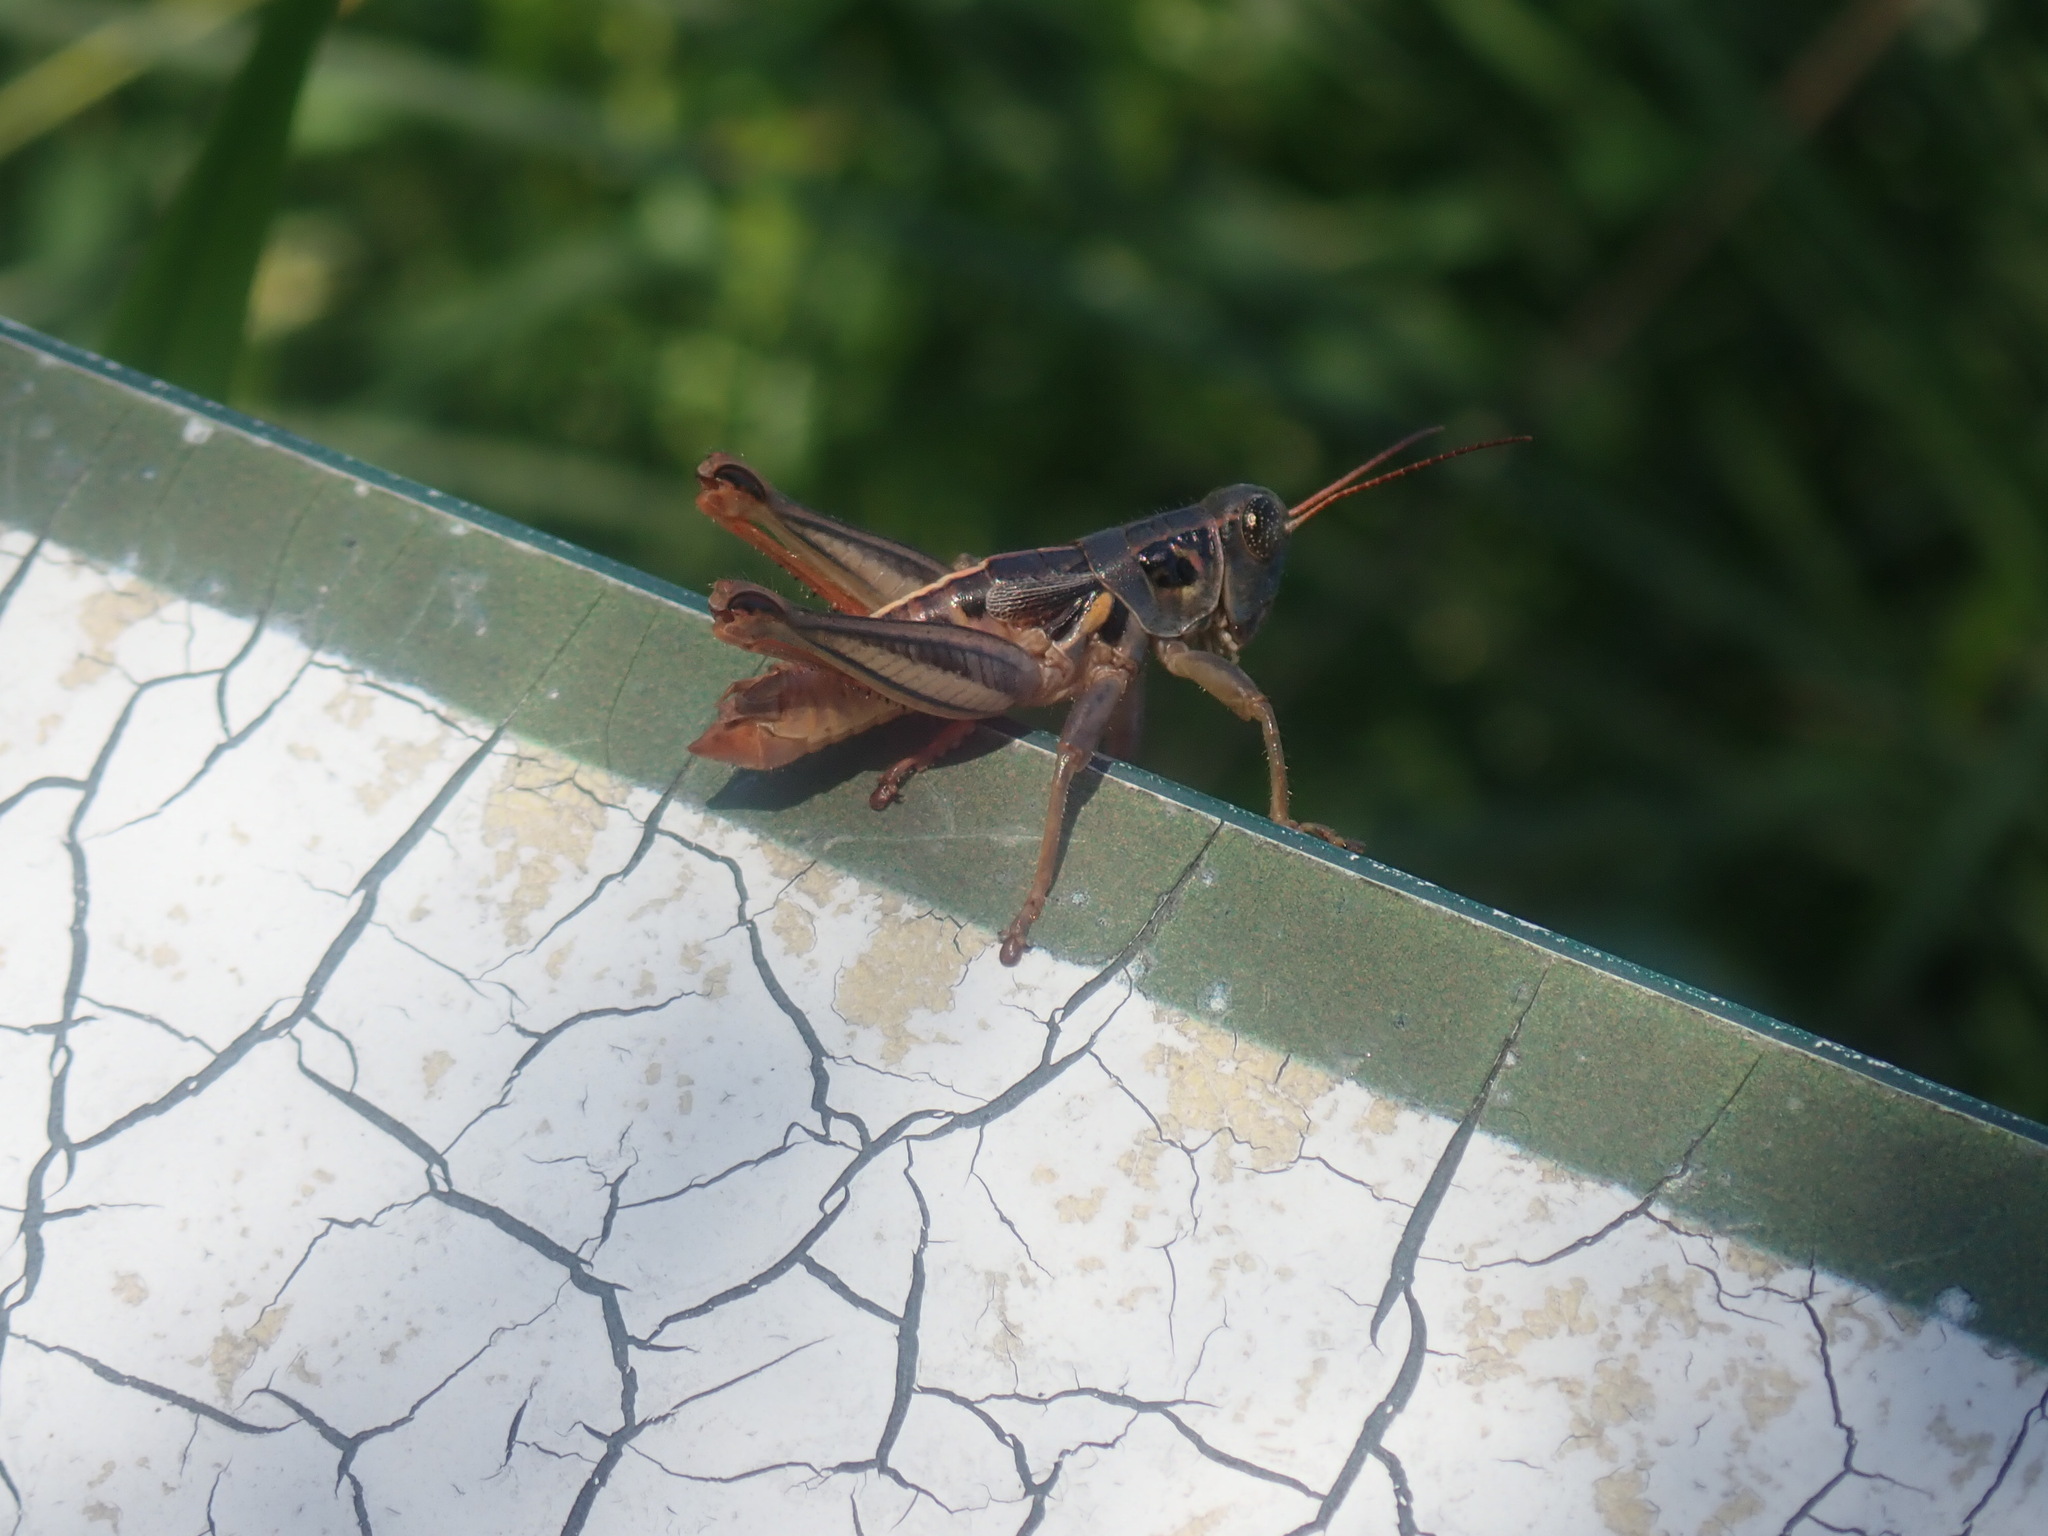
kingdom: Animalia
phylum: Arthropoda
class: Insecta
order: Orthoptera
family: Acrididae
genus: Barytettix
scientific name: Barytettix humphreysii
